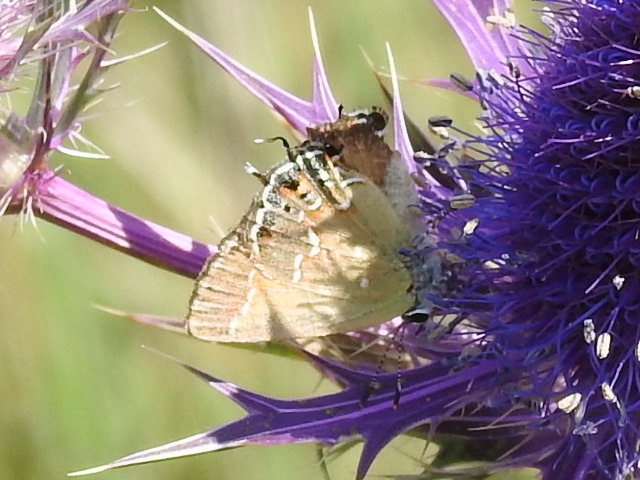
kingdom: Animalia
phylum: Arthropoda
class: Insecta
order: Lepidoptera
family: Lycaenidae
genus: Mitoura
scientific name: Mitoura gryneus
